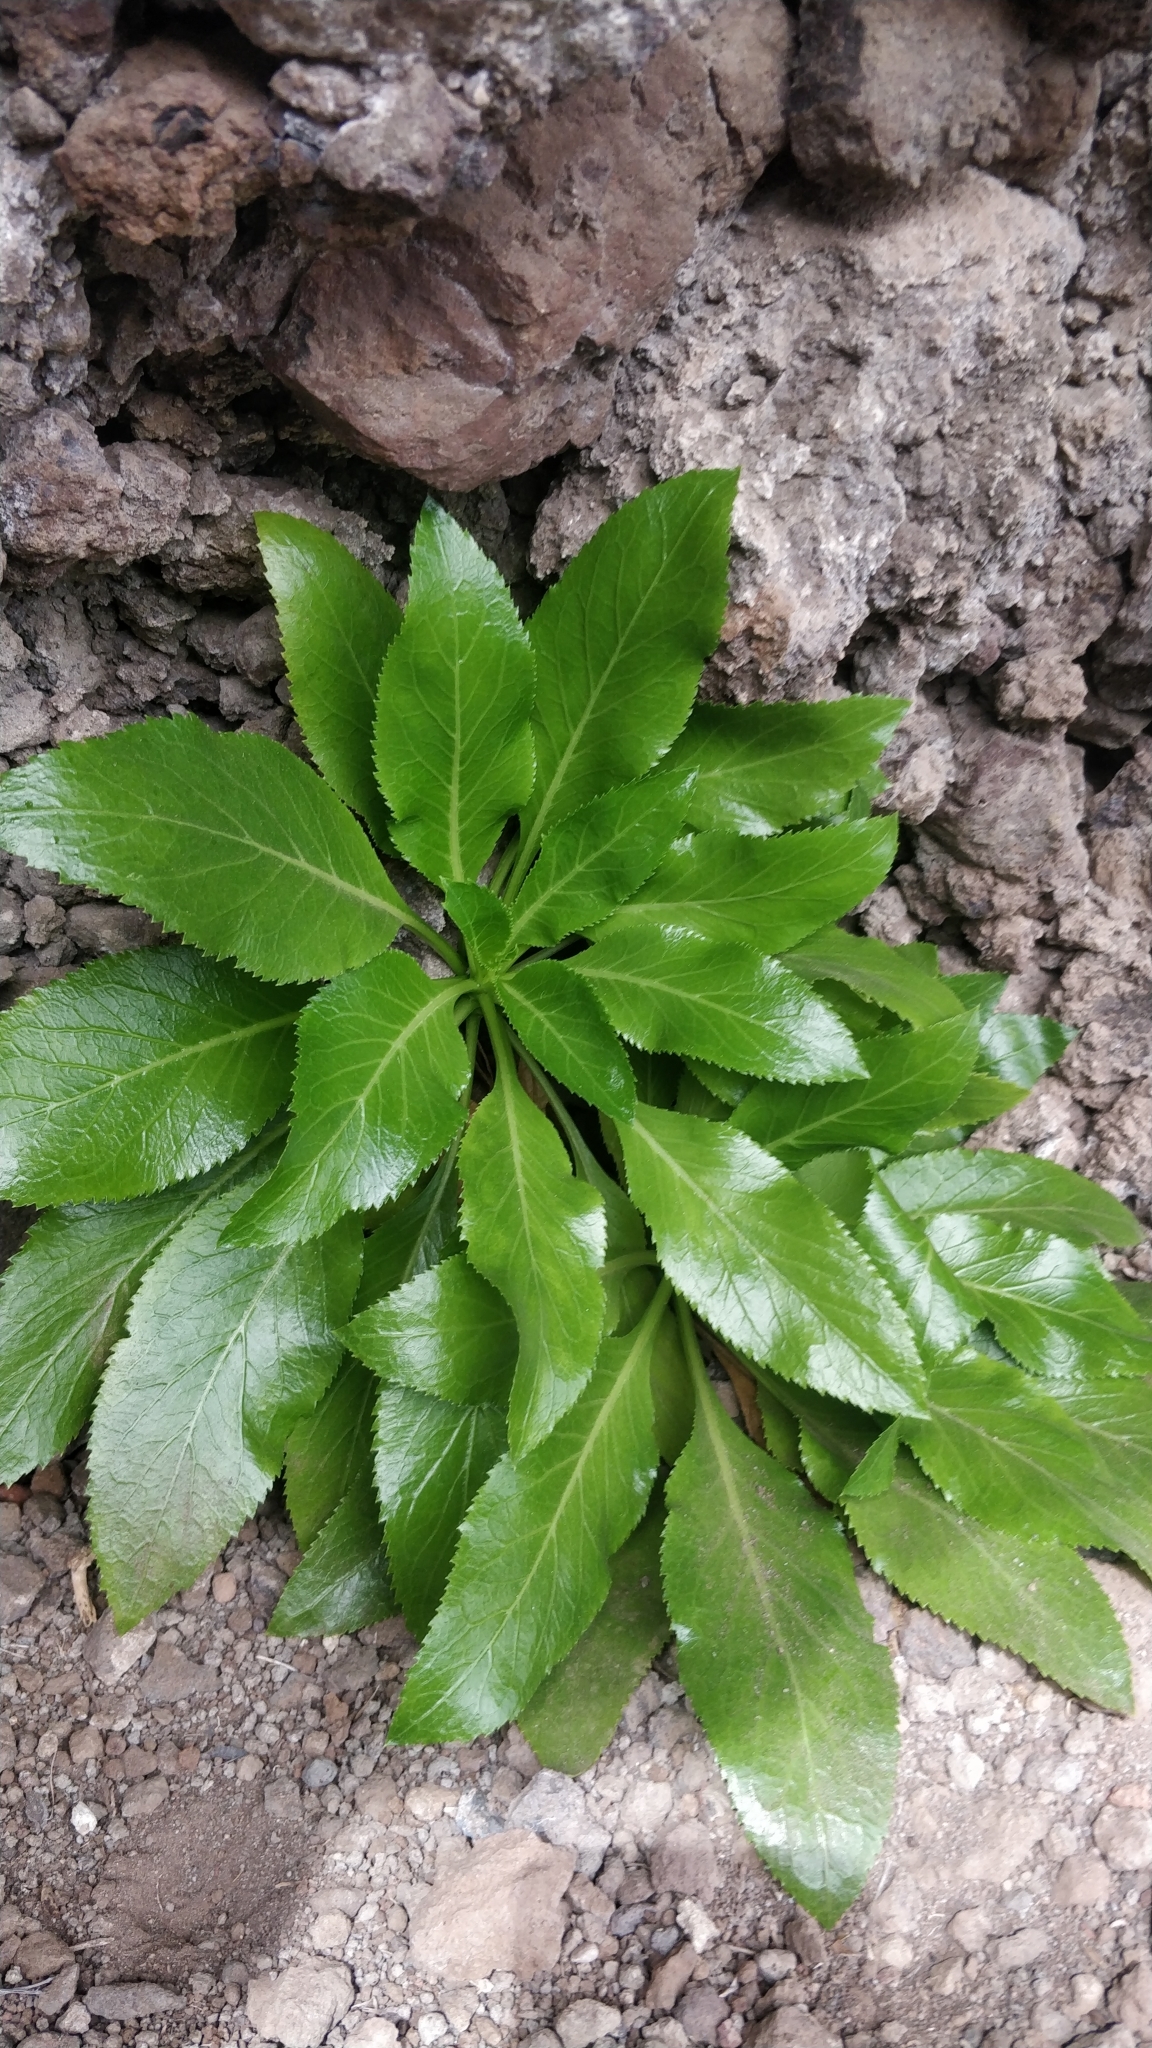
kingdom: Plantae
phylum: Tracheophyta
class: Magnoliopsida
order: Asterales
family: Campanulaceae
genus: Musschia
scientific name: Musschia aurea
